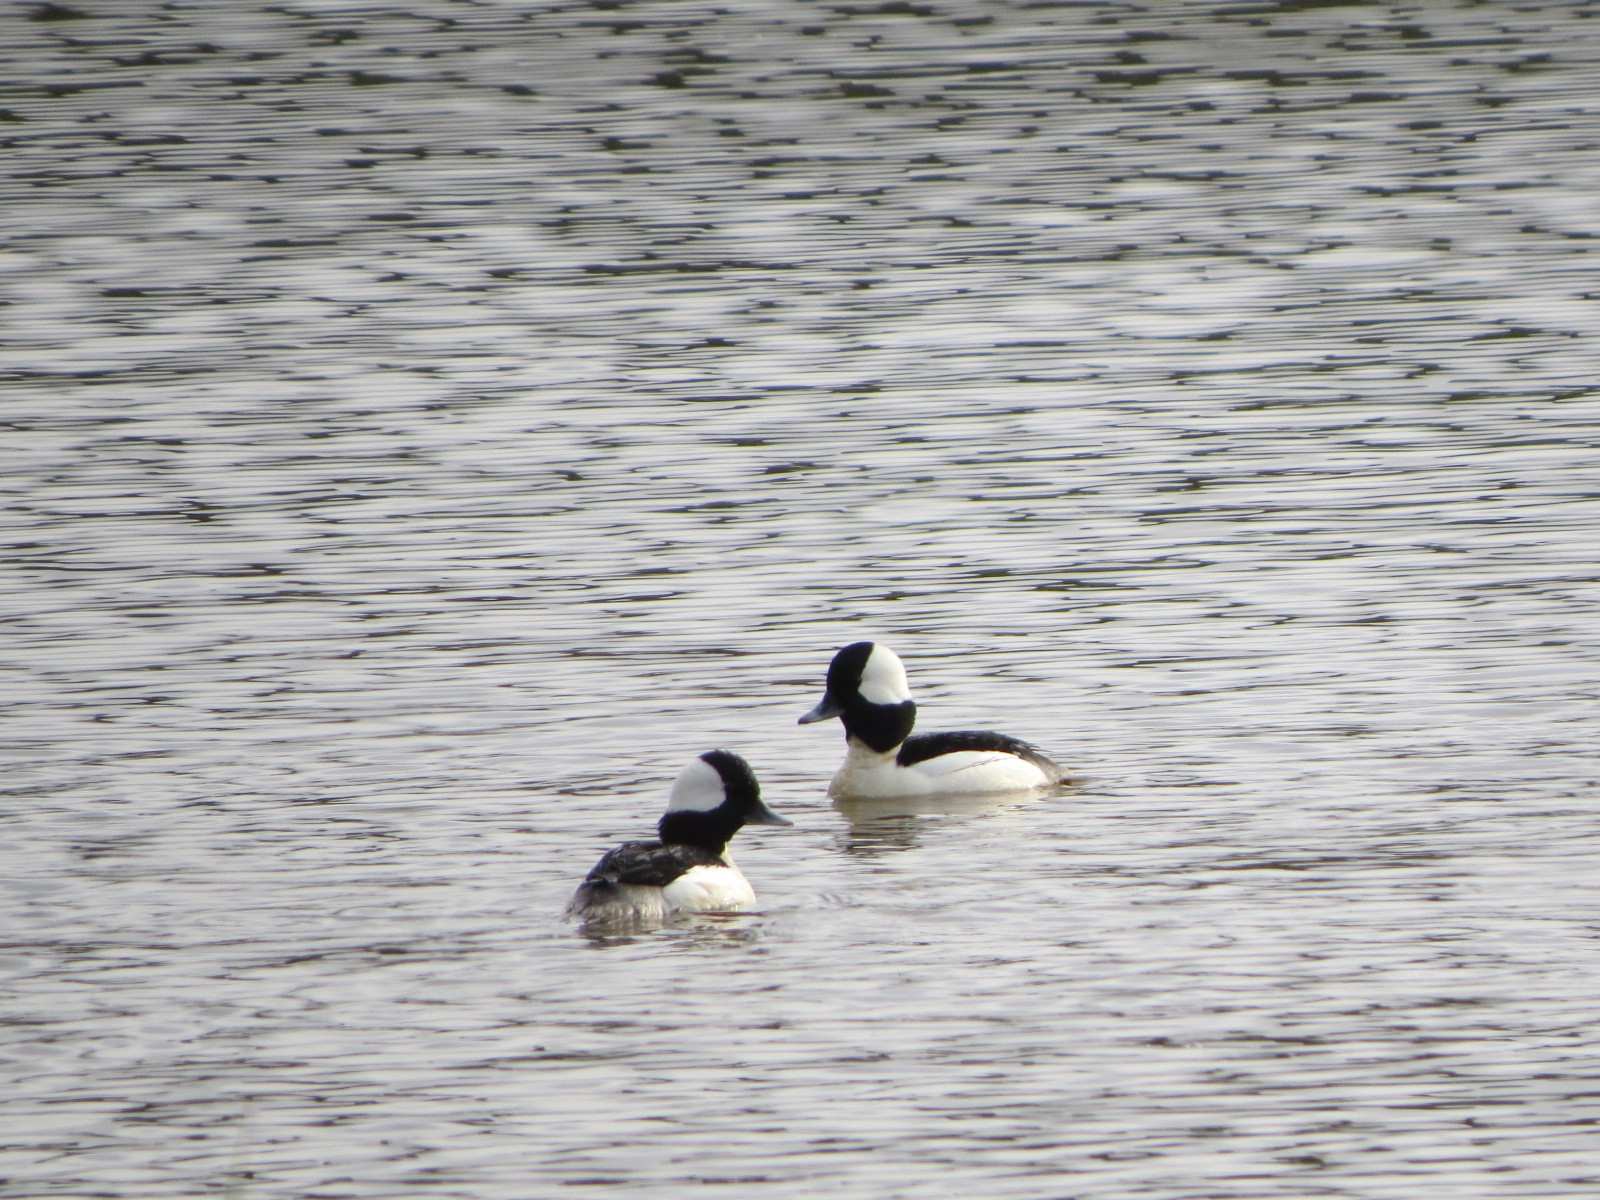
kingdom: Animalia
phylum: Chordata
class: Aves
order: Anseriformes
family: Anatidae
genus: Bucephala
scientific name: Bucephala albeola
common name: Bufflehead
